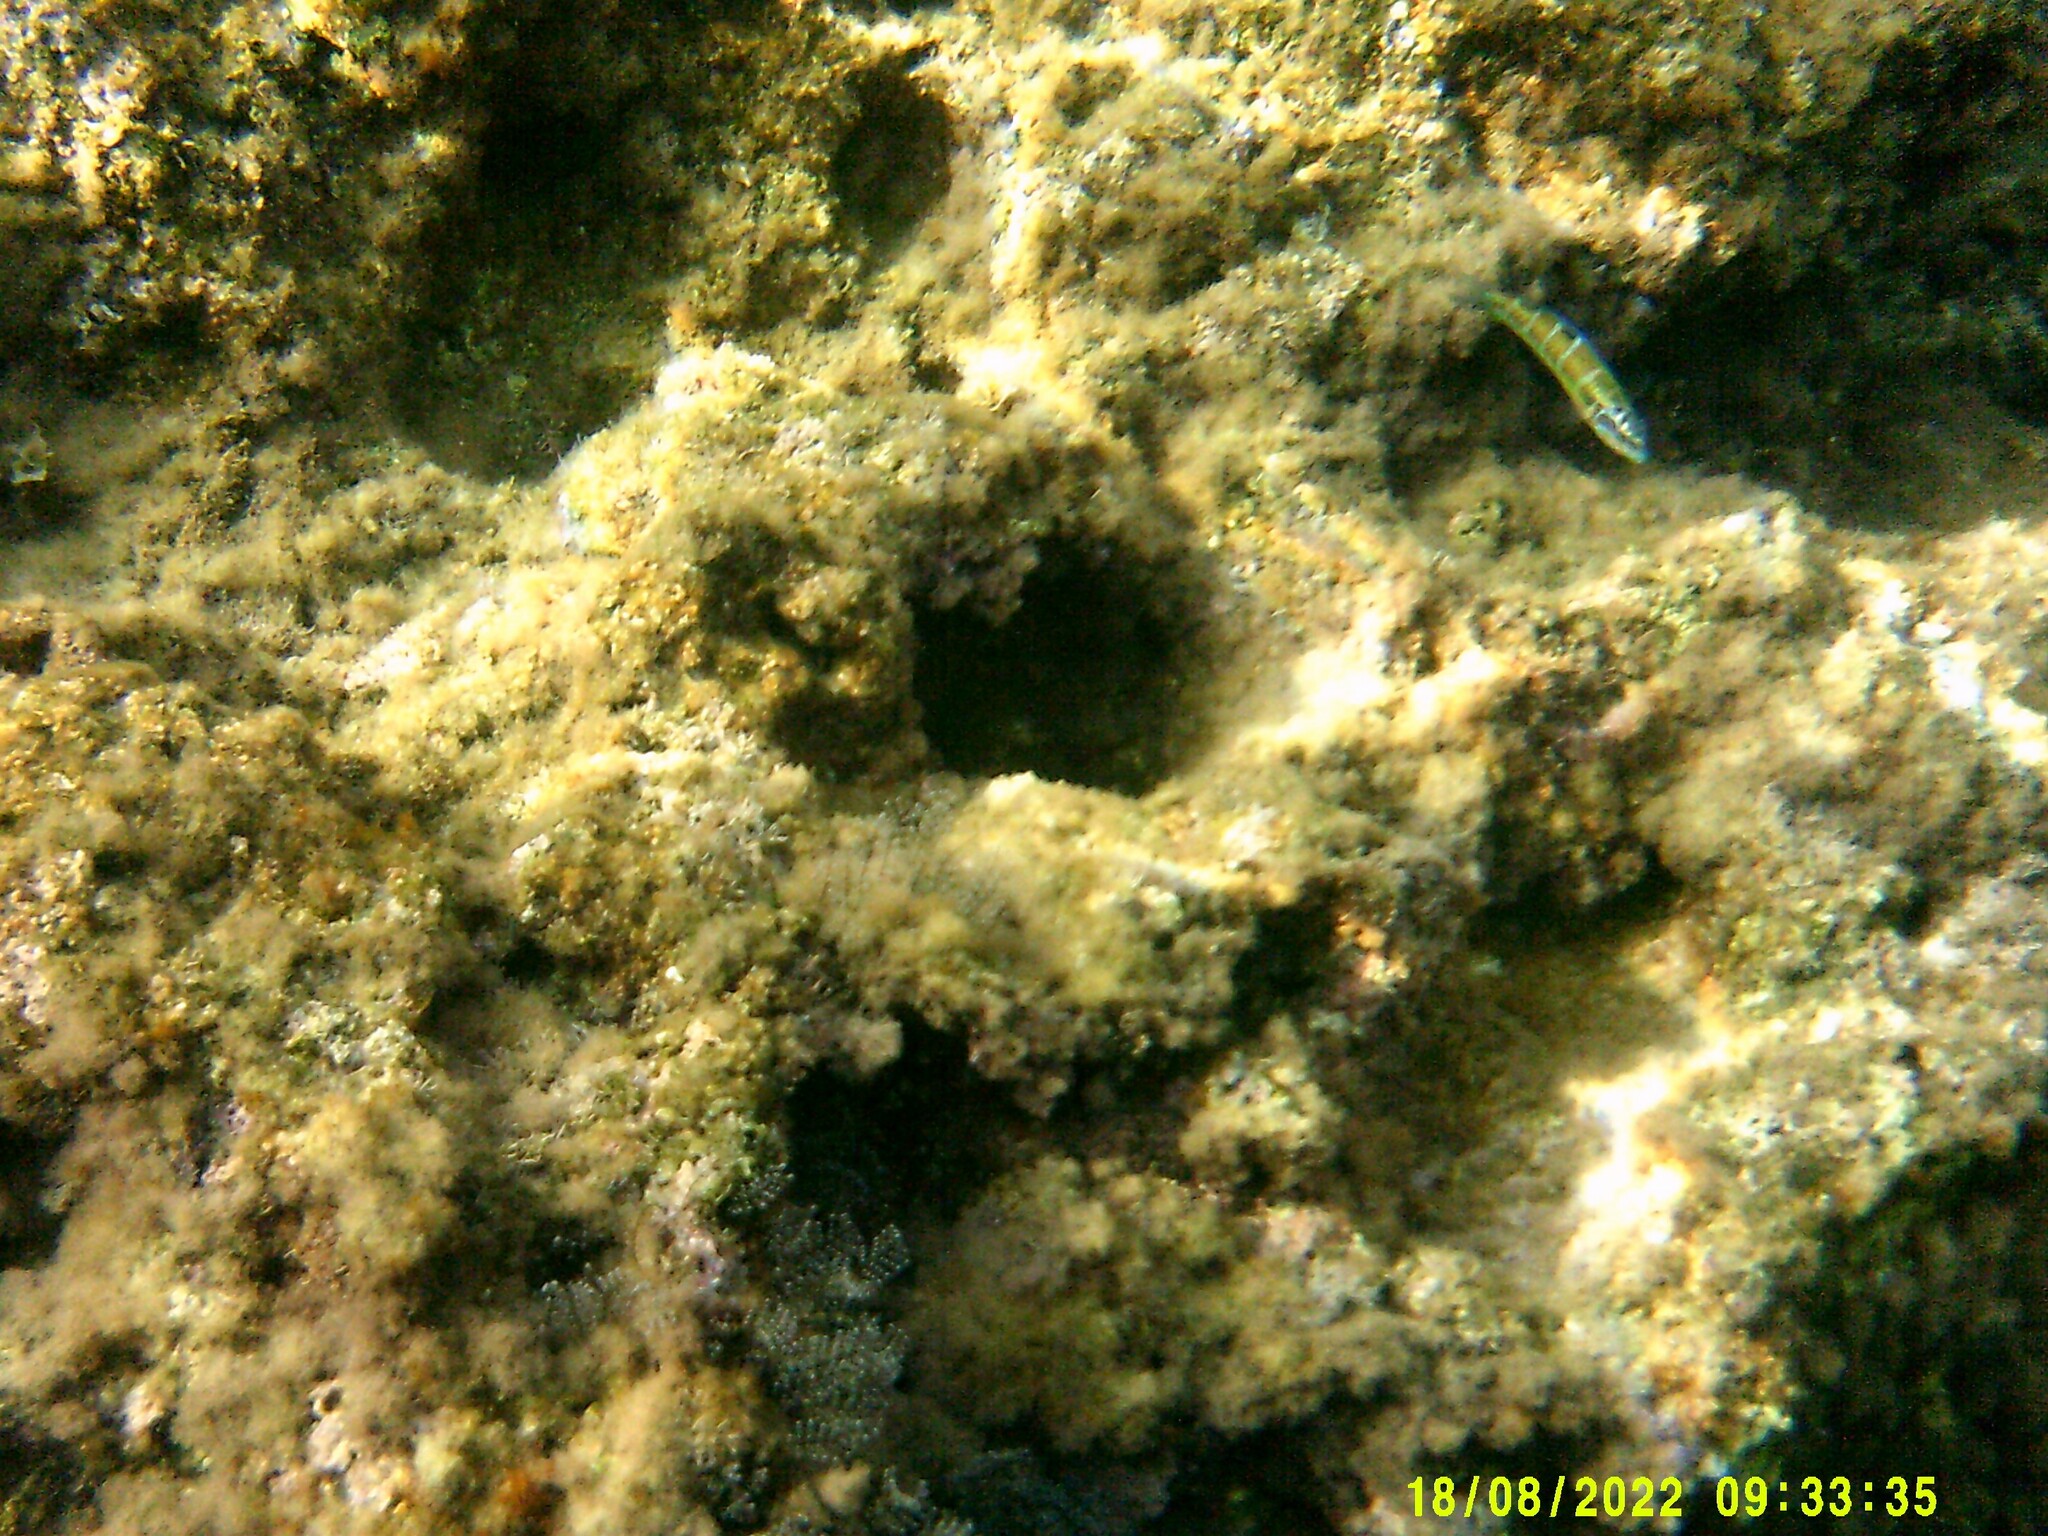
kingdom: Animalia
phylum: Chordata
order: Perciformes
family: Labridae
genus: Thalassoma
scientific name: Thalassoma pavo
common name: Ornate wrasse
